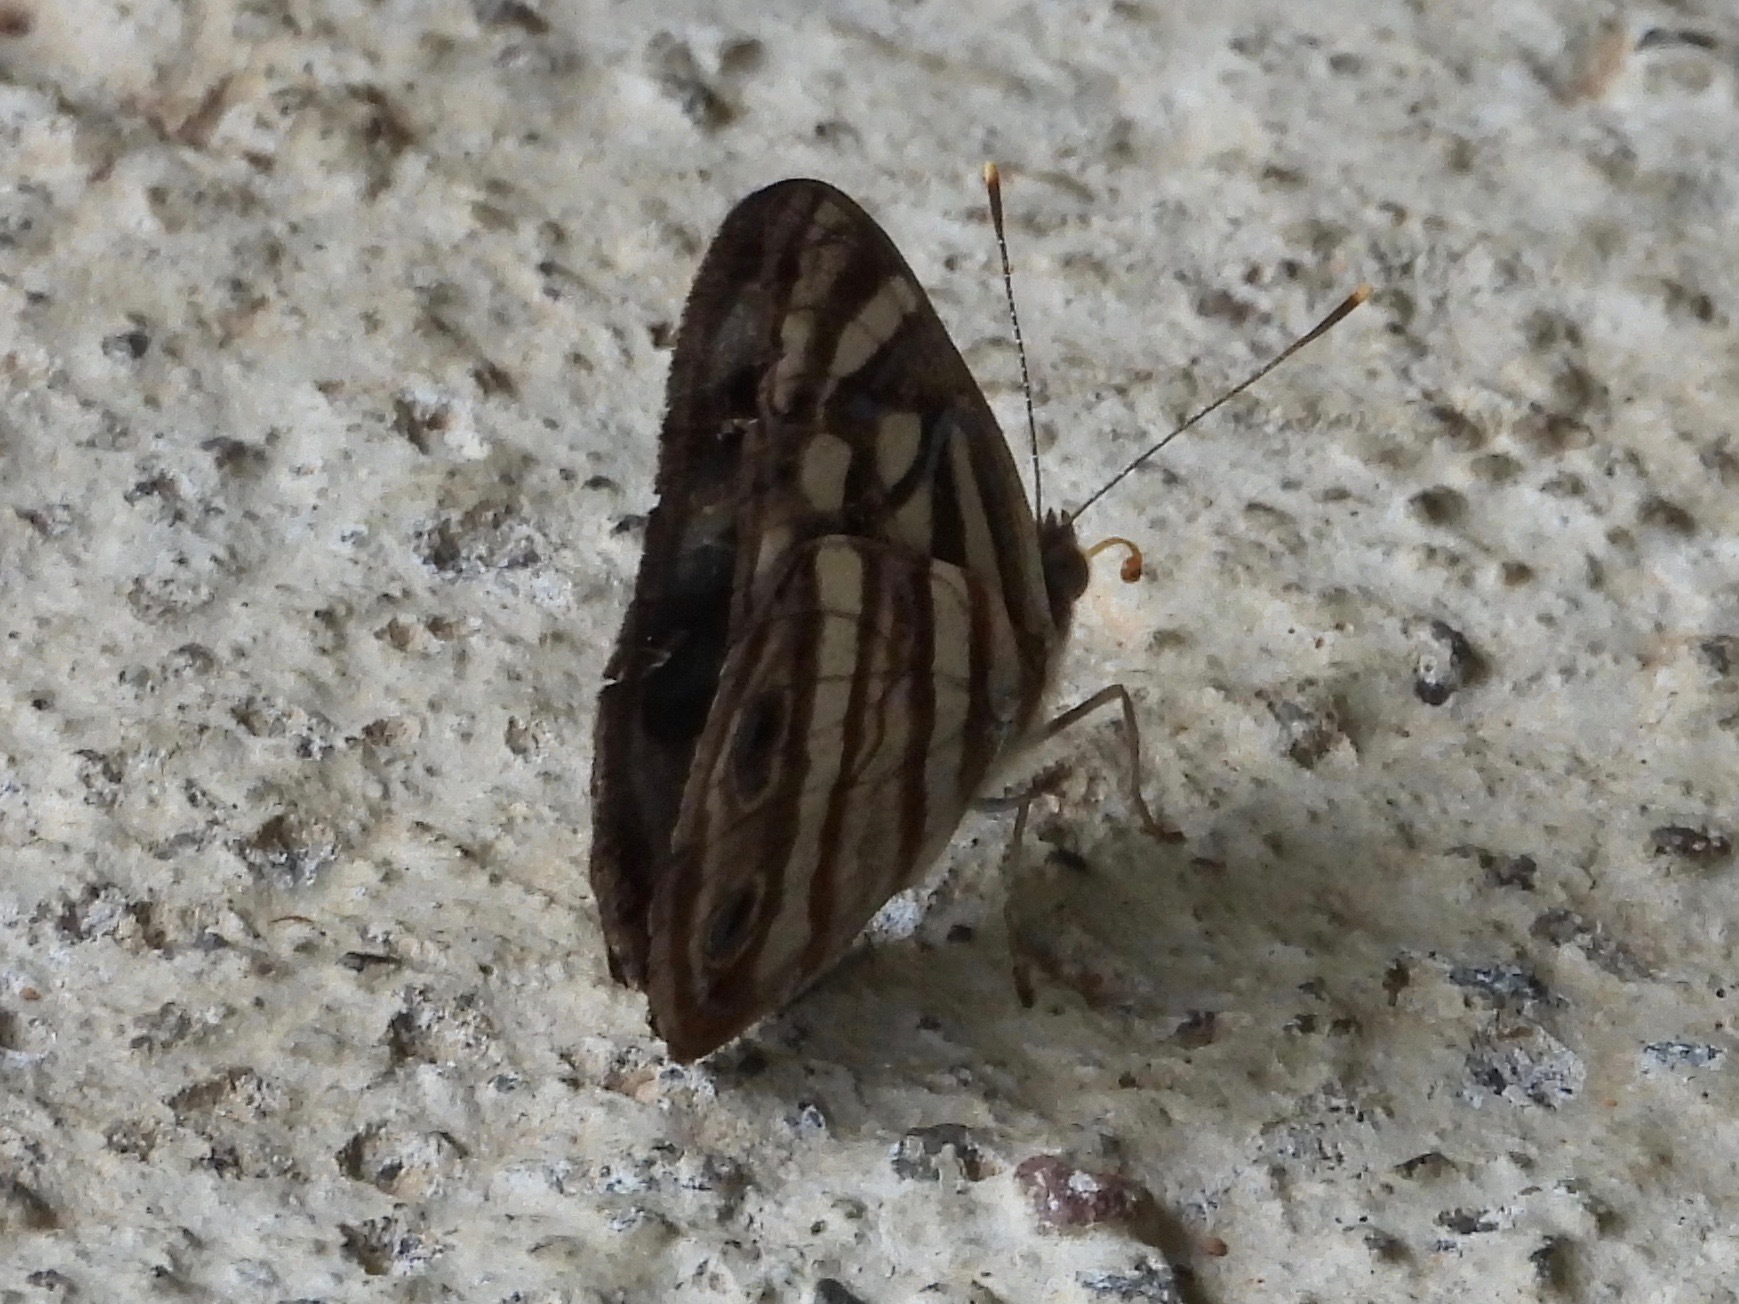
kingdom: Animalia
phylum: Arthropoda
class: Insecta
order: Lepidoptera
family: Nymphalidae
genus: Dynamine
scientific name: Dynamine mylitta
